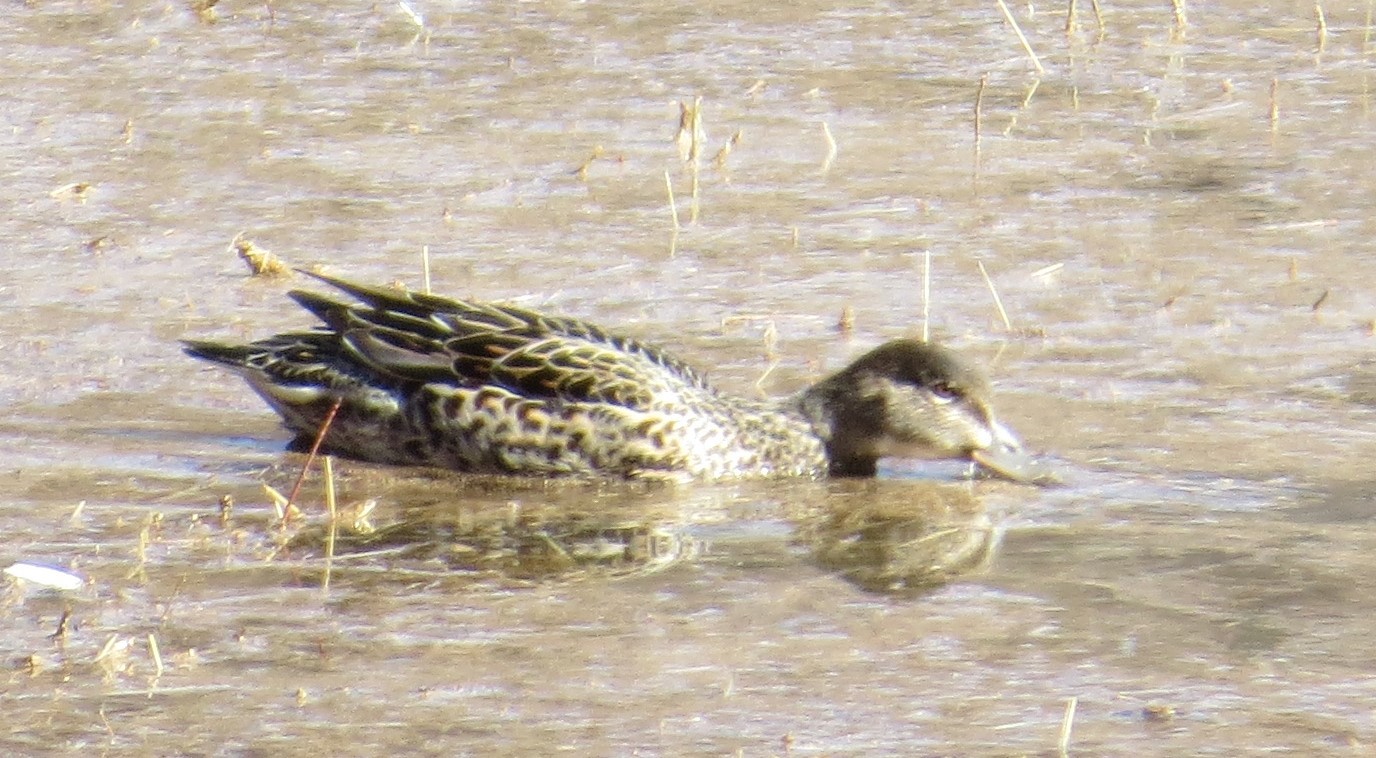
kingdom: Animalia
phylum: Chordata
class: Aves
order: Anseriformes
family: Anatidae
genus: Anas
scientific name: Anas crecca
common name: Eurasian teal
